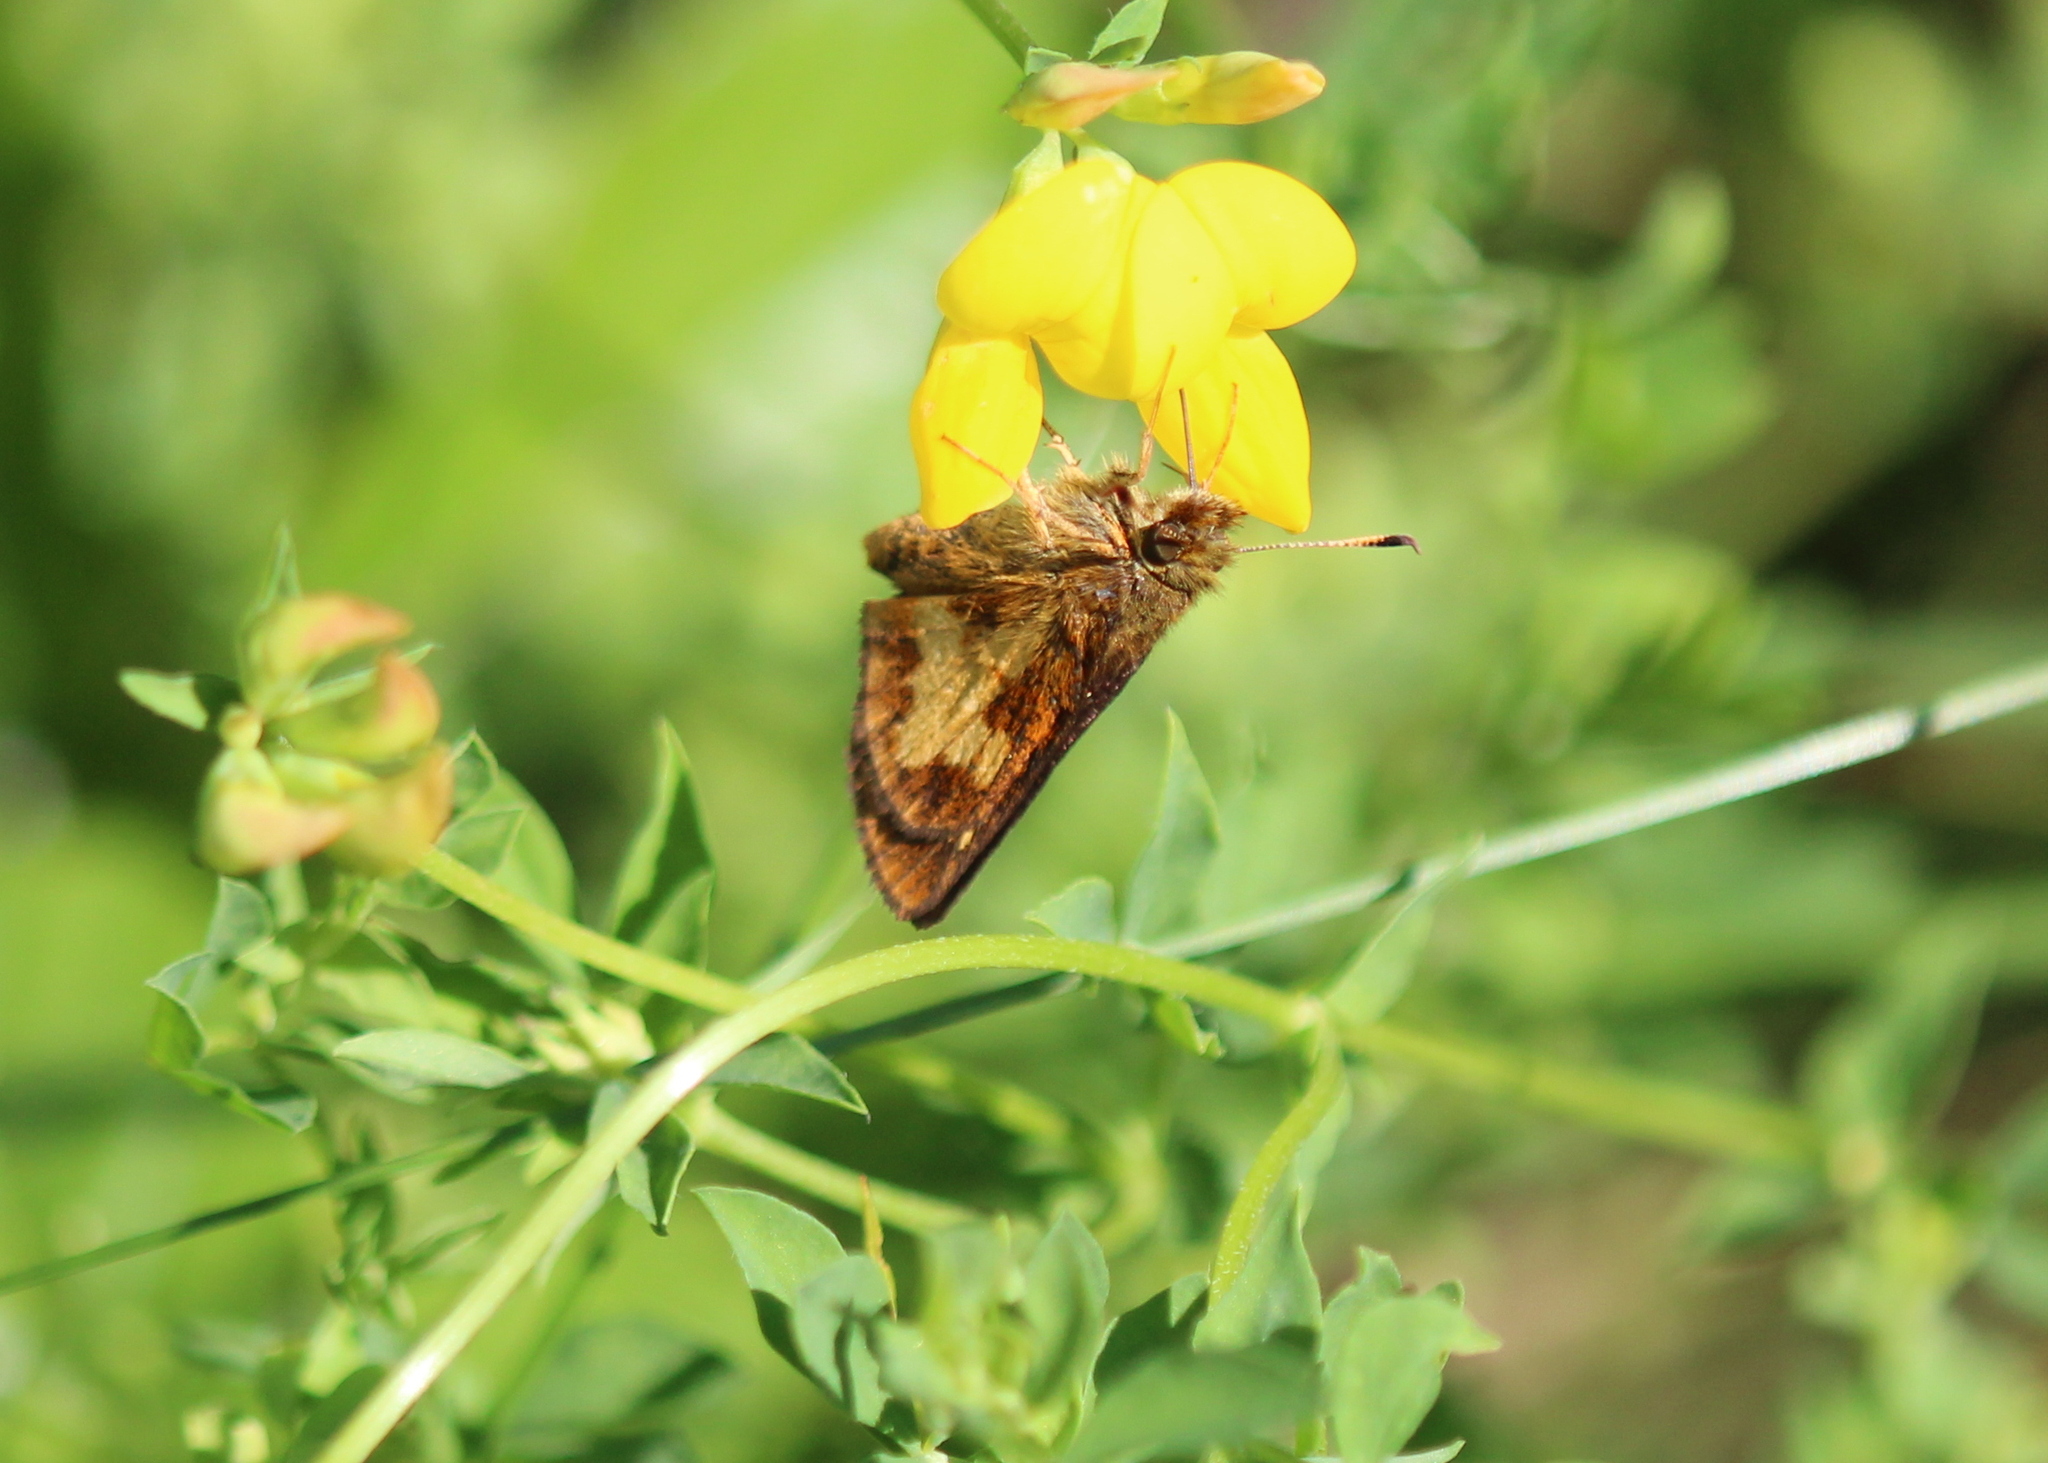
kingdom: Animalia
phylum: Arthropoda
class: Insecta
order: Lepidoptera
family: Hesperiidae
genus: Poanes
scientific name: Poanes massasoit
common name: Mulberrywing
